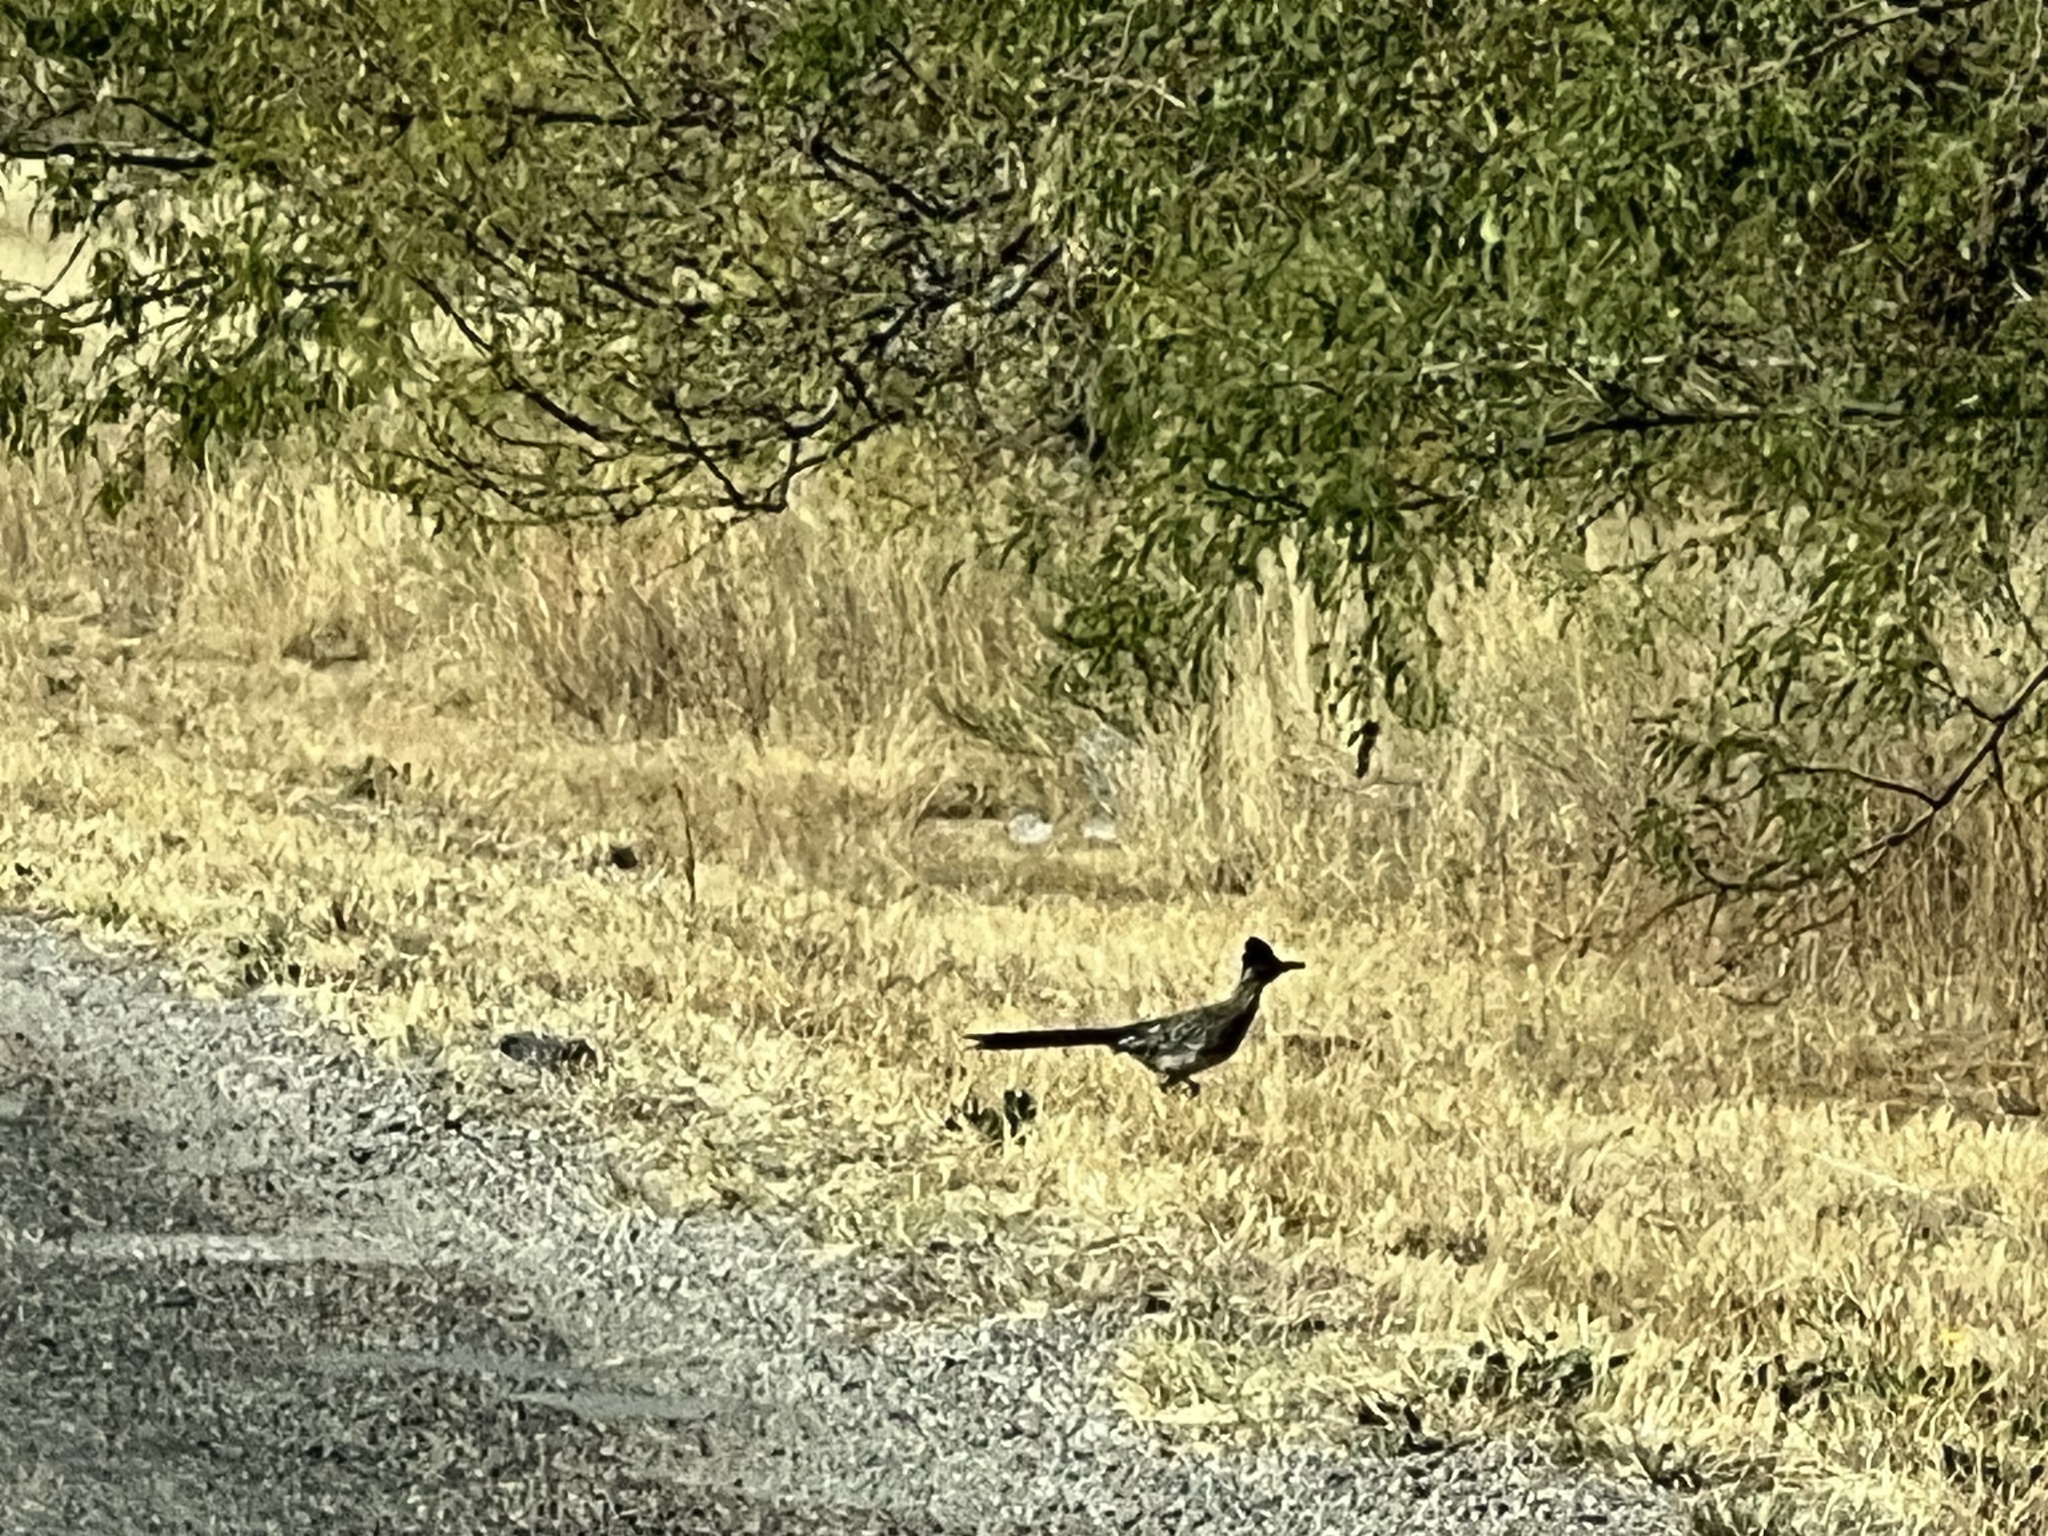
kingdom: Animalia
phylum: Chordata
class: Aves
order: Cuculiformes
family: Cuculidae
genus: Geococcyx
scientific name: Geococcyx californianus
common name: Greater roadrunner
